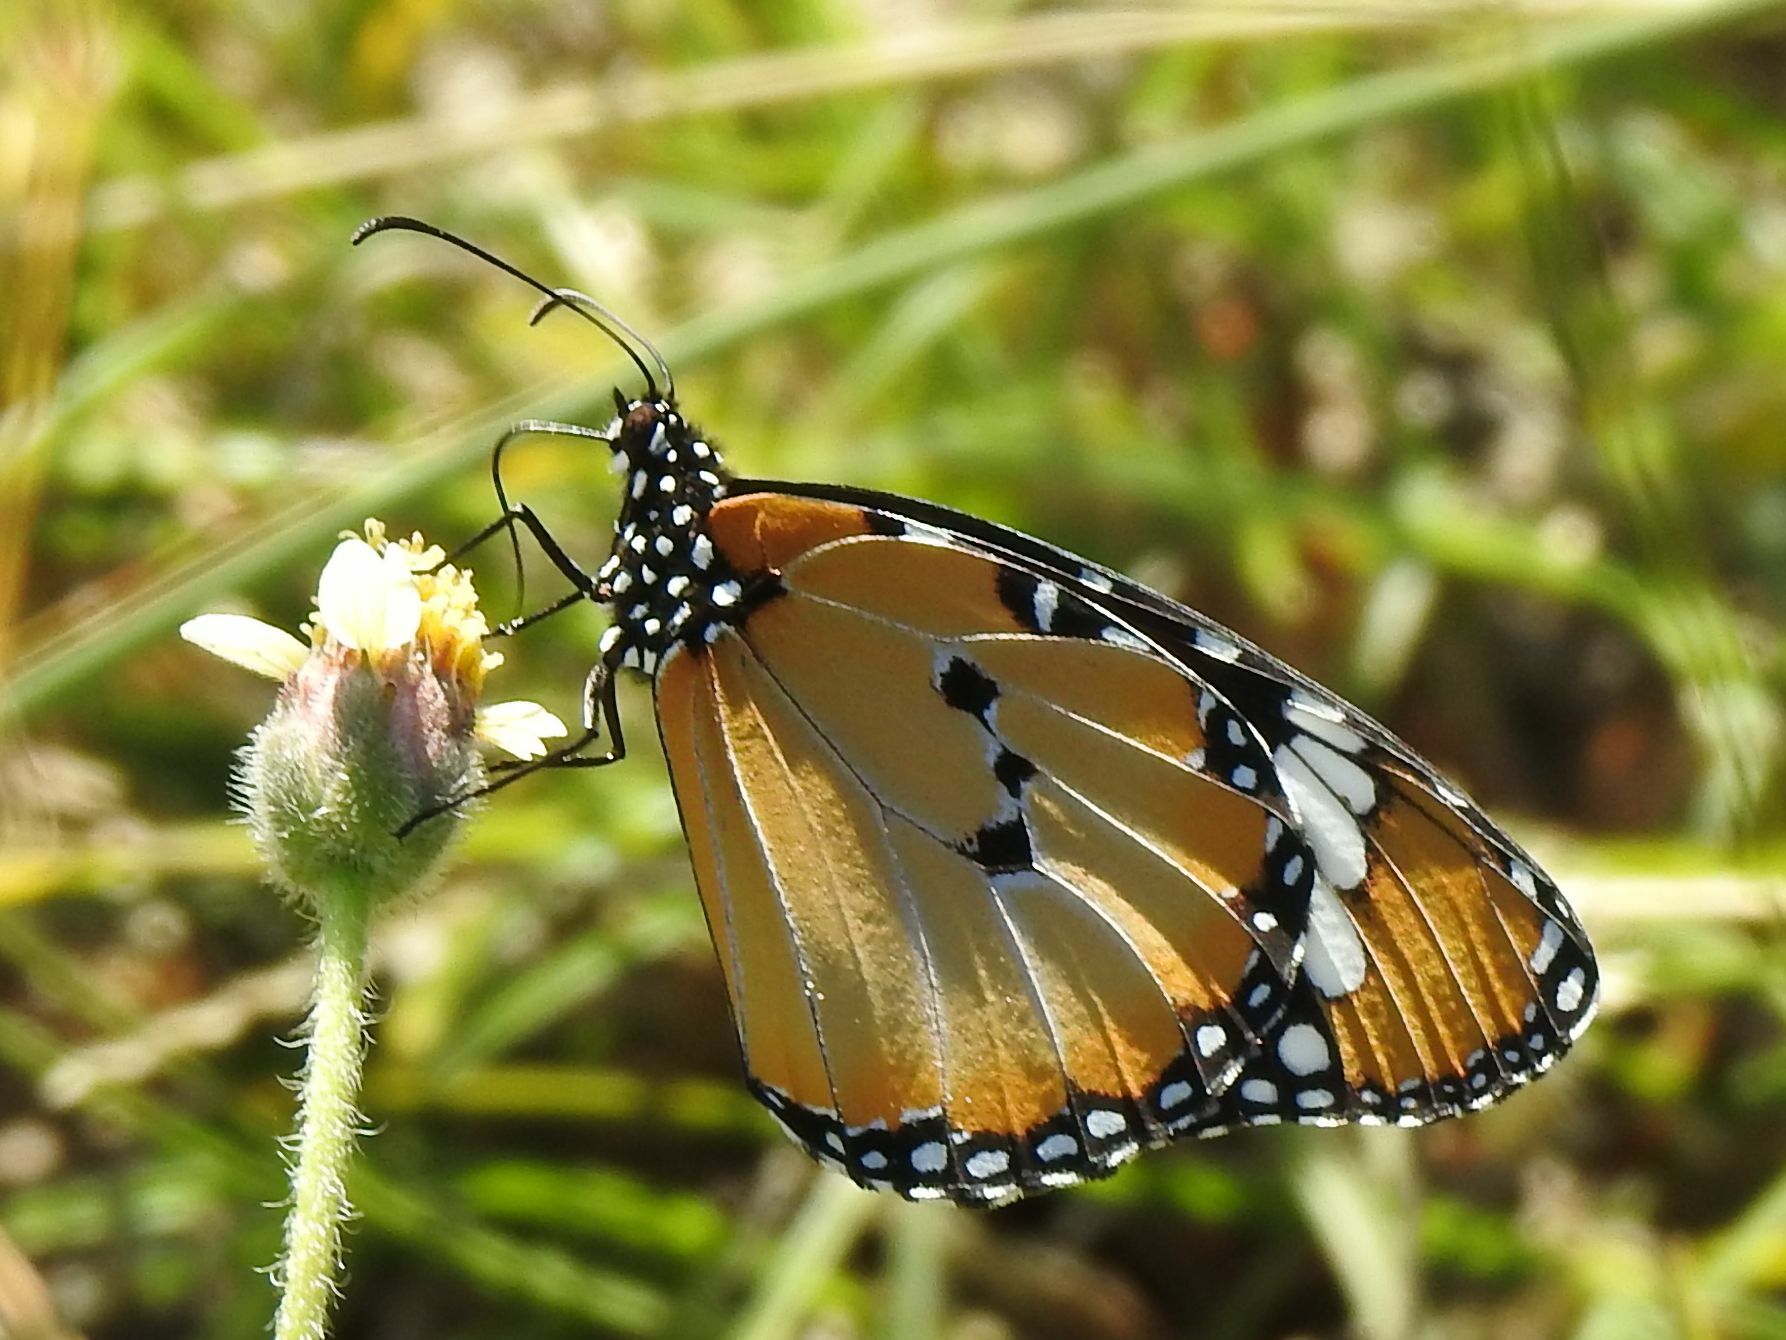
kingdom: Animalia
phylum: Arthropoda
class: Insecta
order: Lepidoptera
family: Nymphalidae
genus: Danaus
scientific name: Danaus chrysippus
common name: Plain tiger
